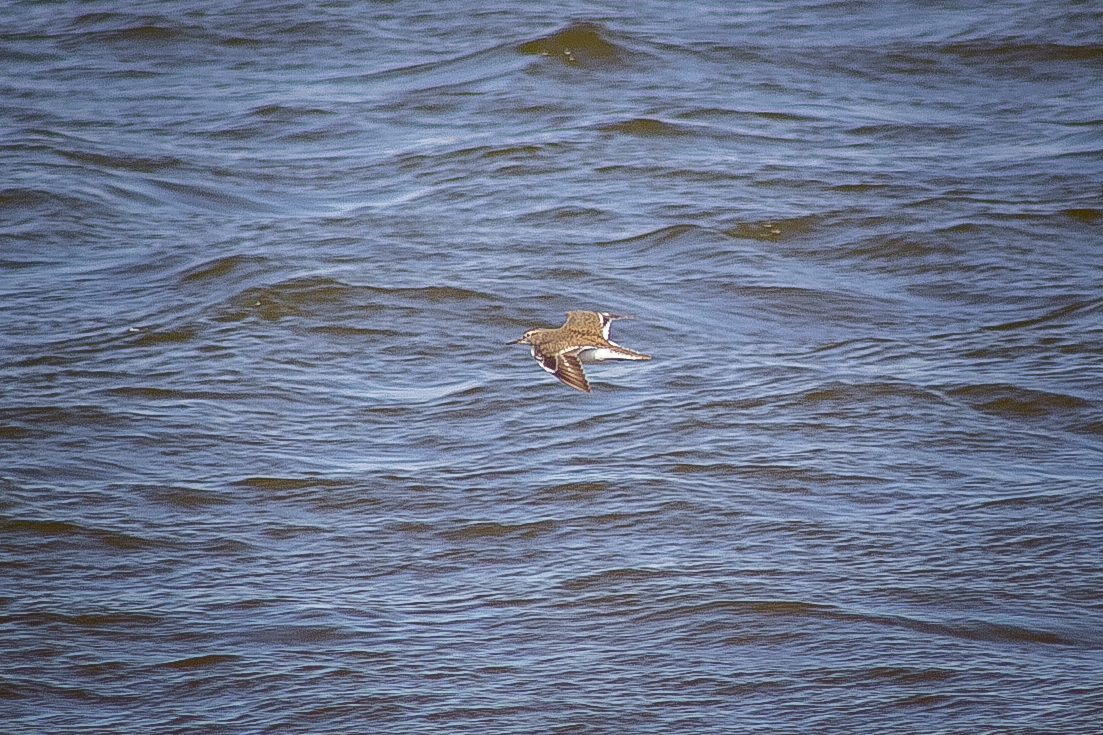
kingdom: Animalia
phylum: Chordata
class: Aves
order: Charadriiformes
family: Scolopacidae
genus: Actitis
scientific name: Actitis hypoleucos
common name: Common sandpiper
